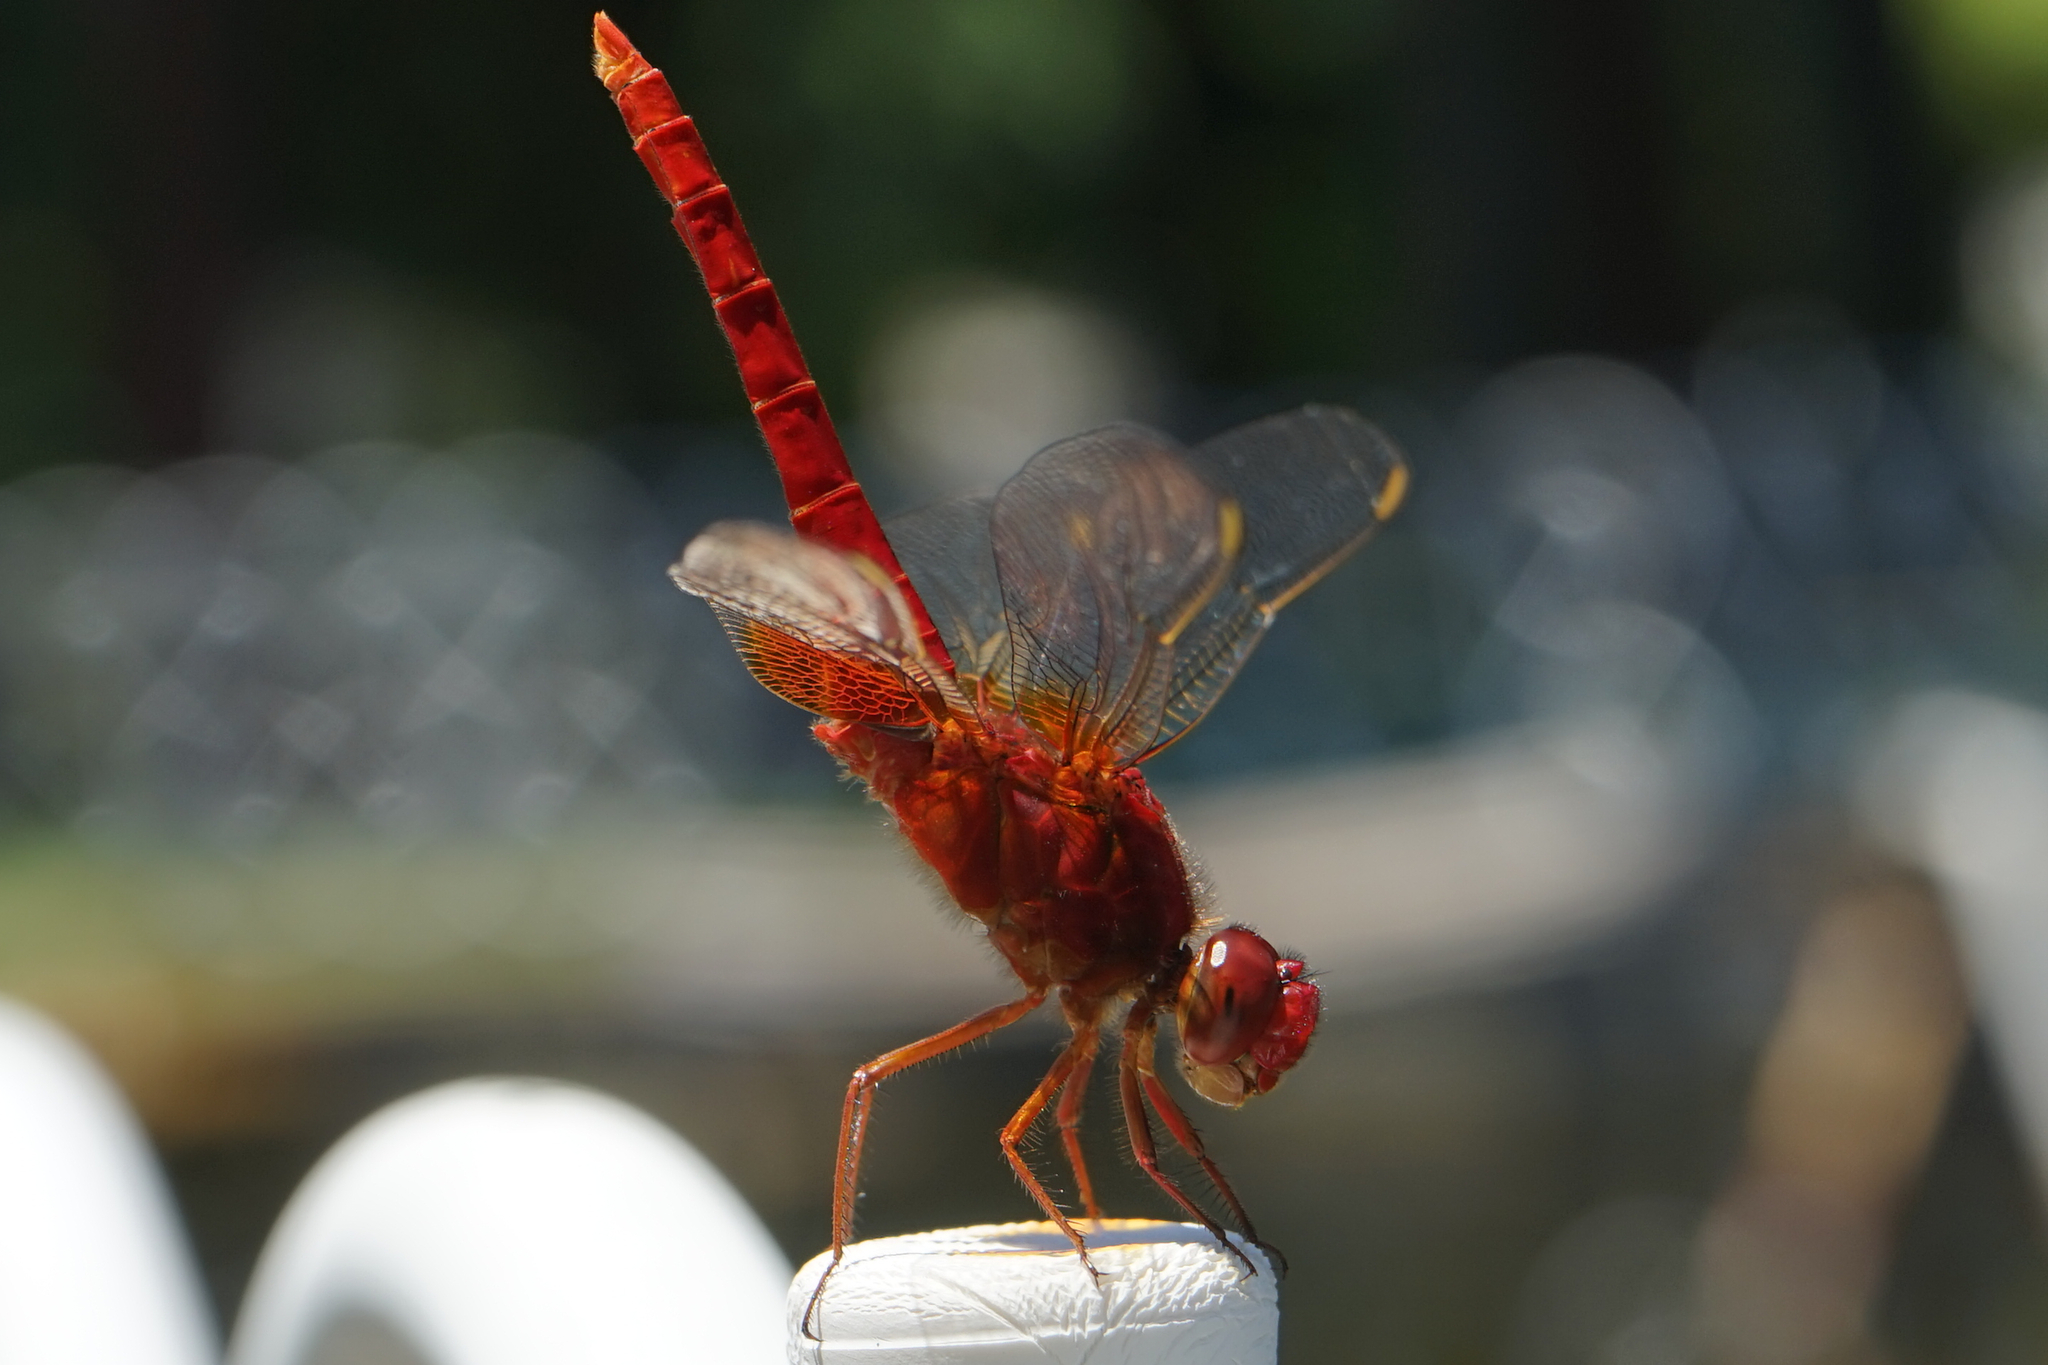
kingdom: Animalia
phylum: Arthropoda
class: Insecta
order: Odonata
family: Libellulidae
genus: Crocothemis
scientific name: Crocothemis servilia
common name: Scarlet skimmer
